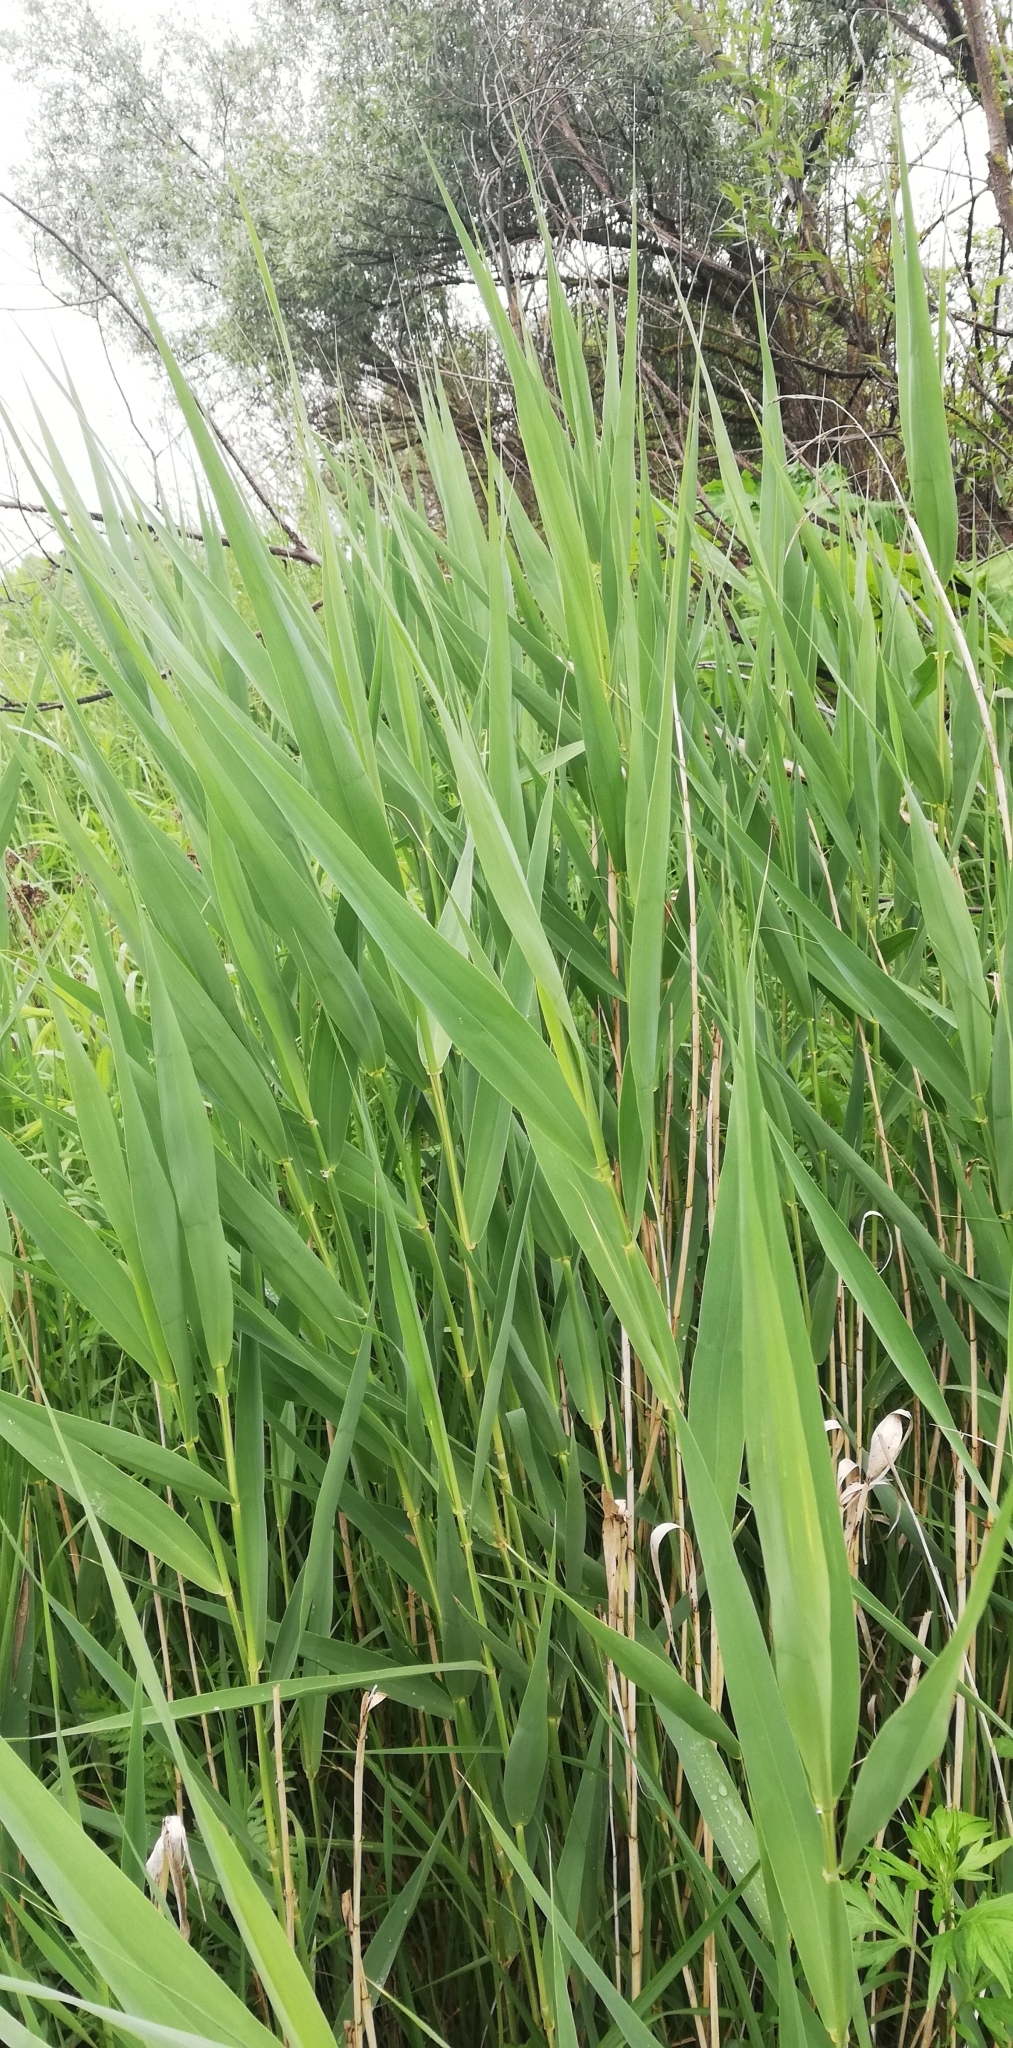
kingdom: Plantae
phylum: Tracheophyta
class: Liliopsida
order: Poales
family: Poaceae
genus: Phragmites
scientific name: Phragmites australis
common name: Common reed
